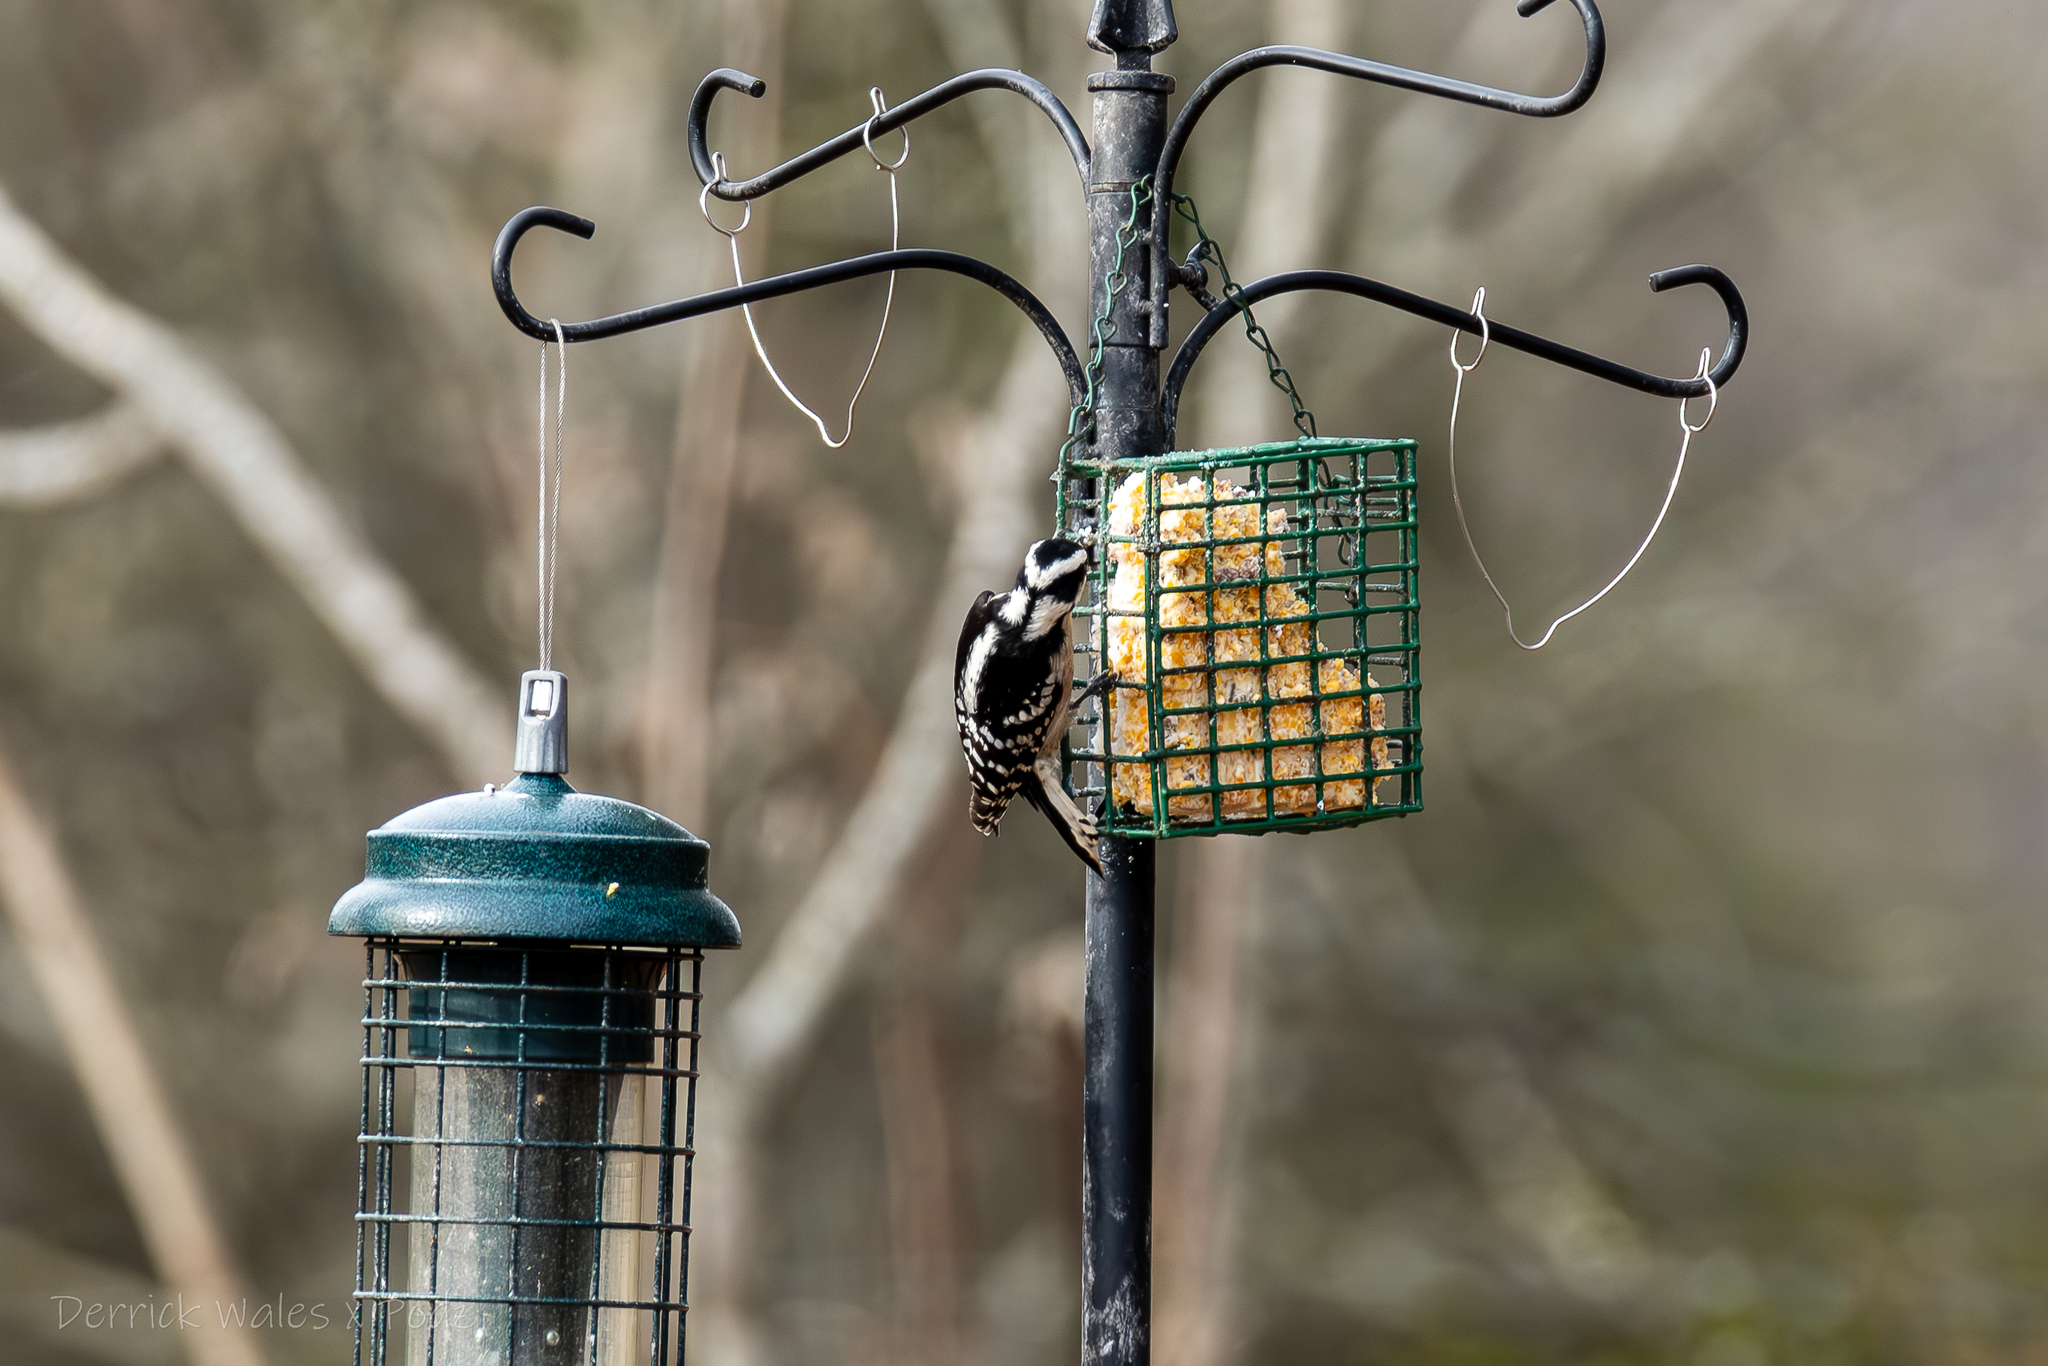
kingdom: Animalia
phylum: Chordata
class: Aves
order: Piciformes
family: Picidae
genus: Dryobates
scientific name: Dryobates pubescens
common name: Downy woodpecker
